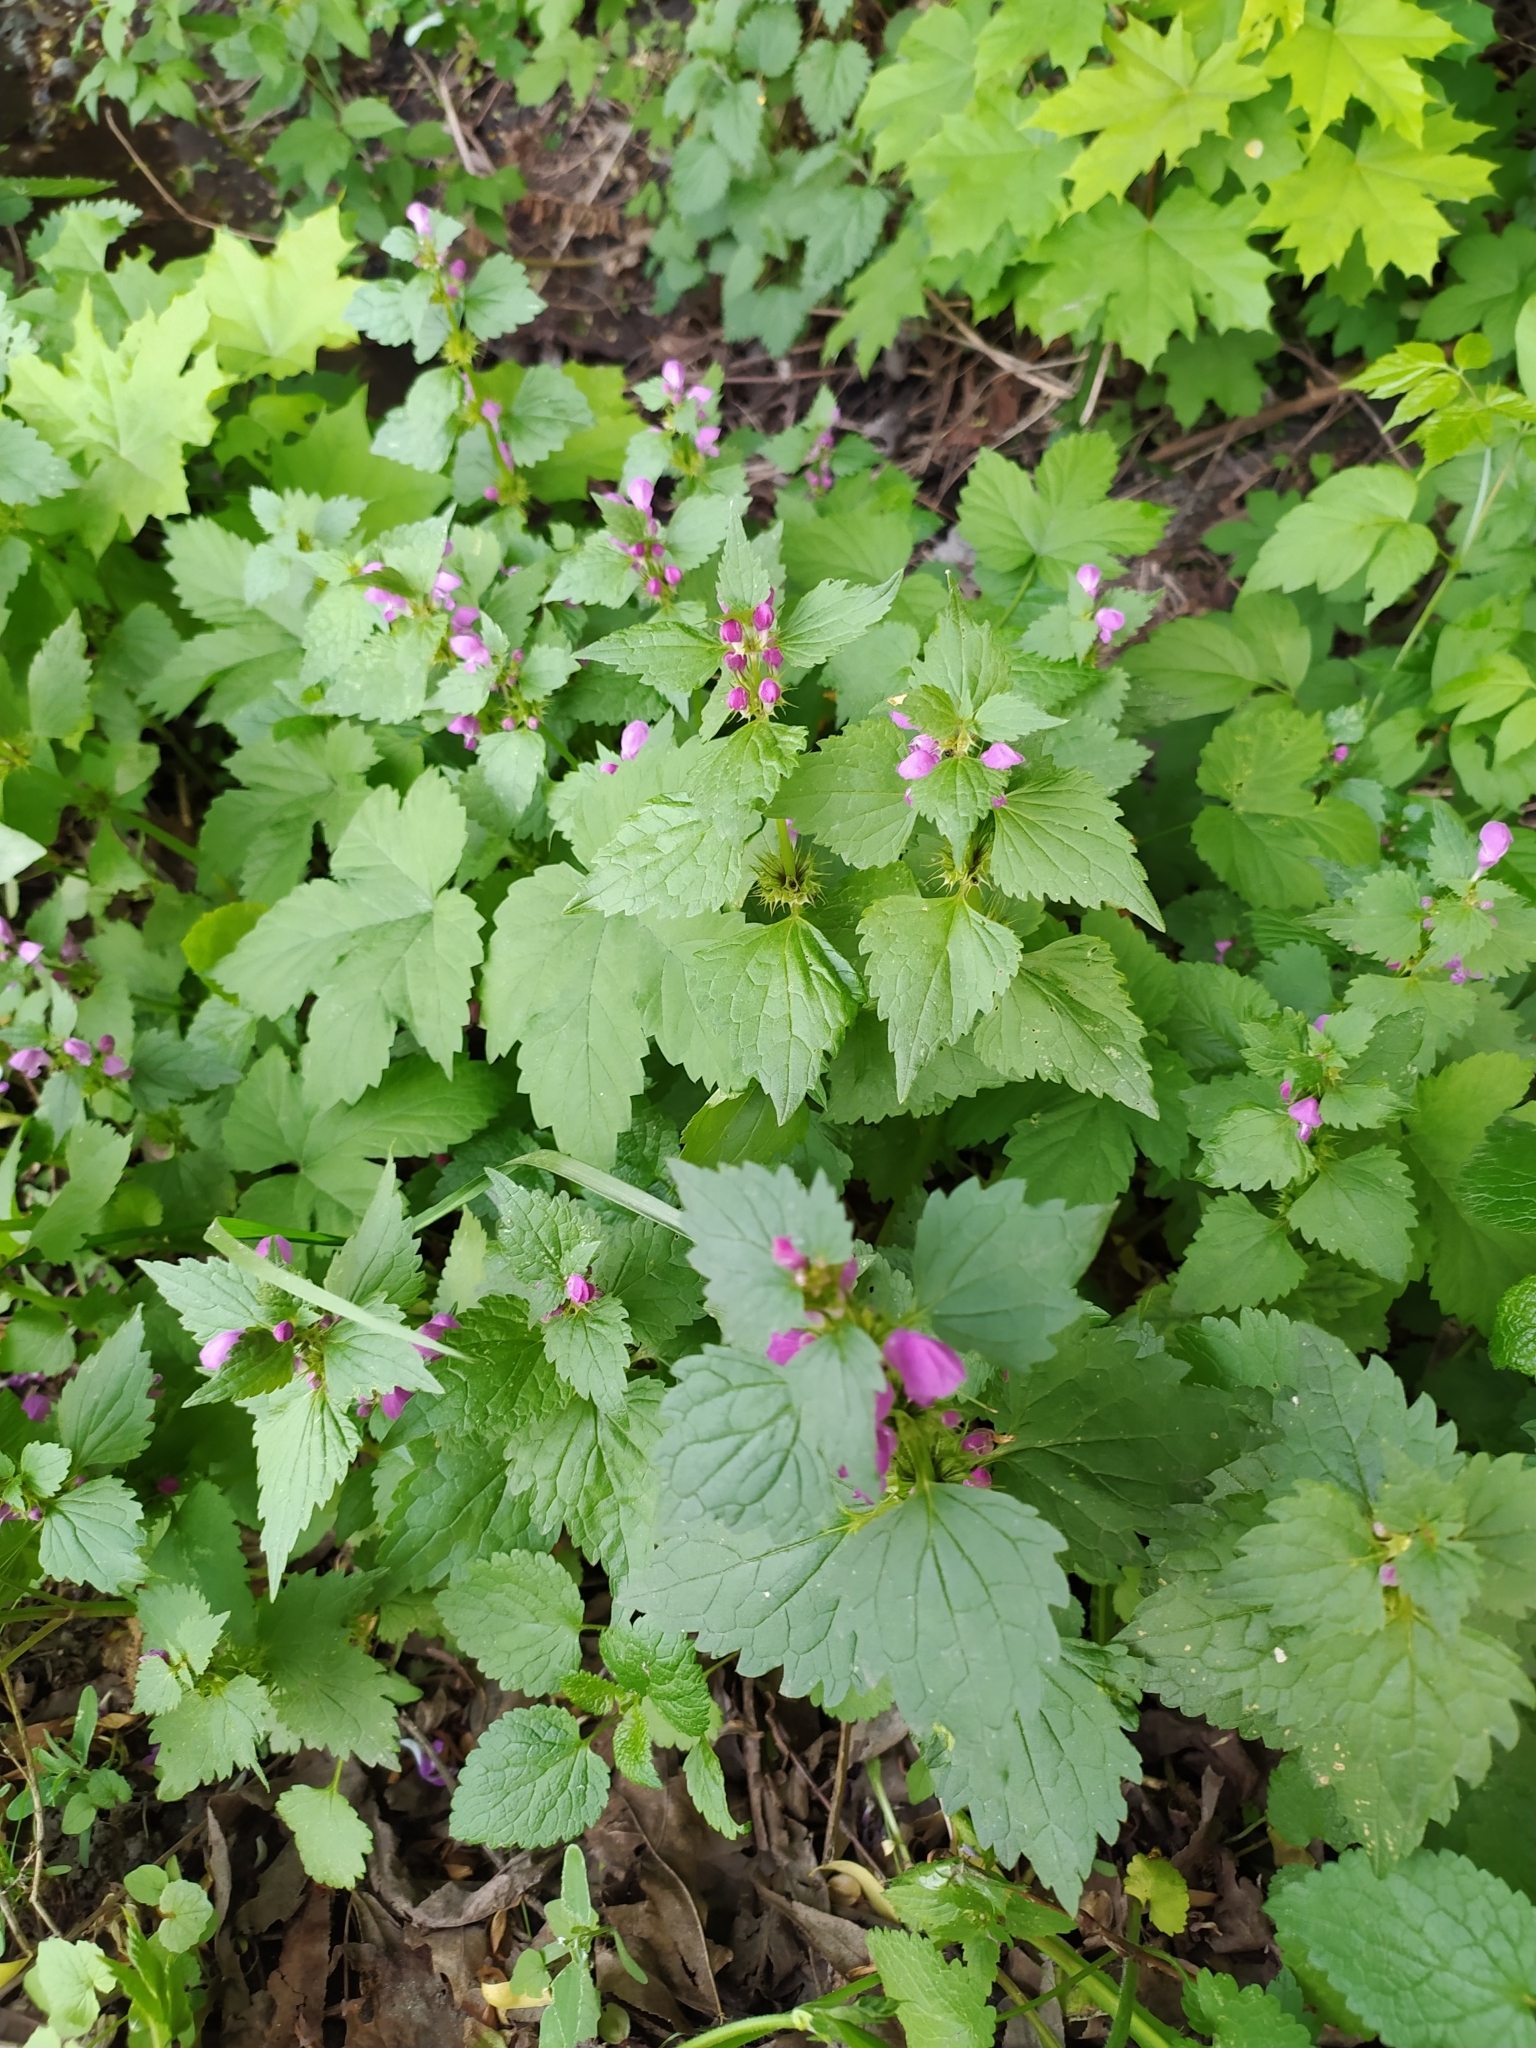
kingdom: Plantae
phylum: Tracheophyta
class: Magnoliopsida
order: Lamiales
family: Lamiaceae
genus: Lamium
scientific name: Lamium maculatum
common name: Spotted dead-nettle
